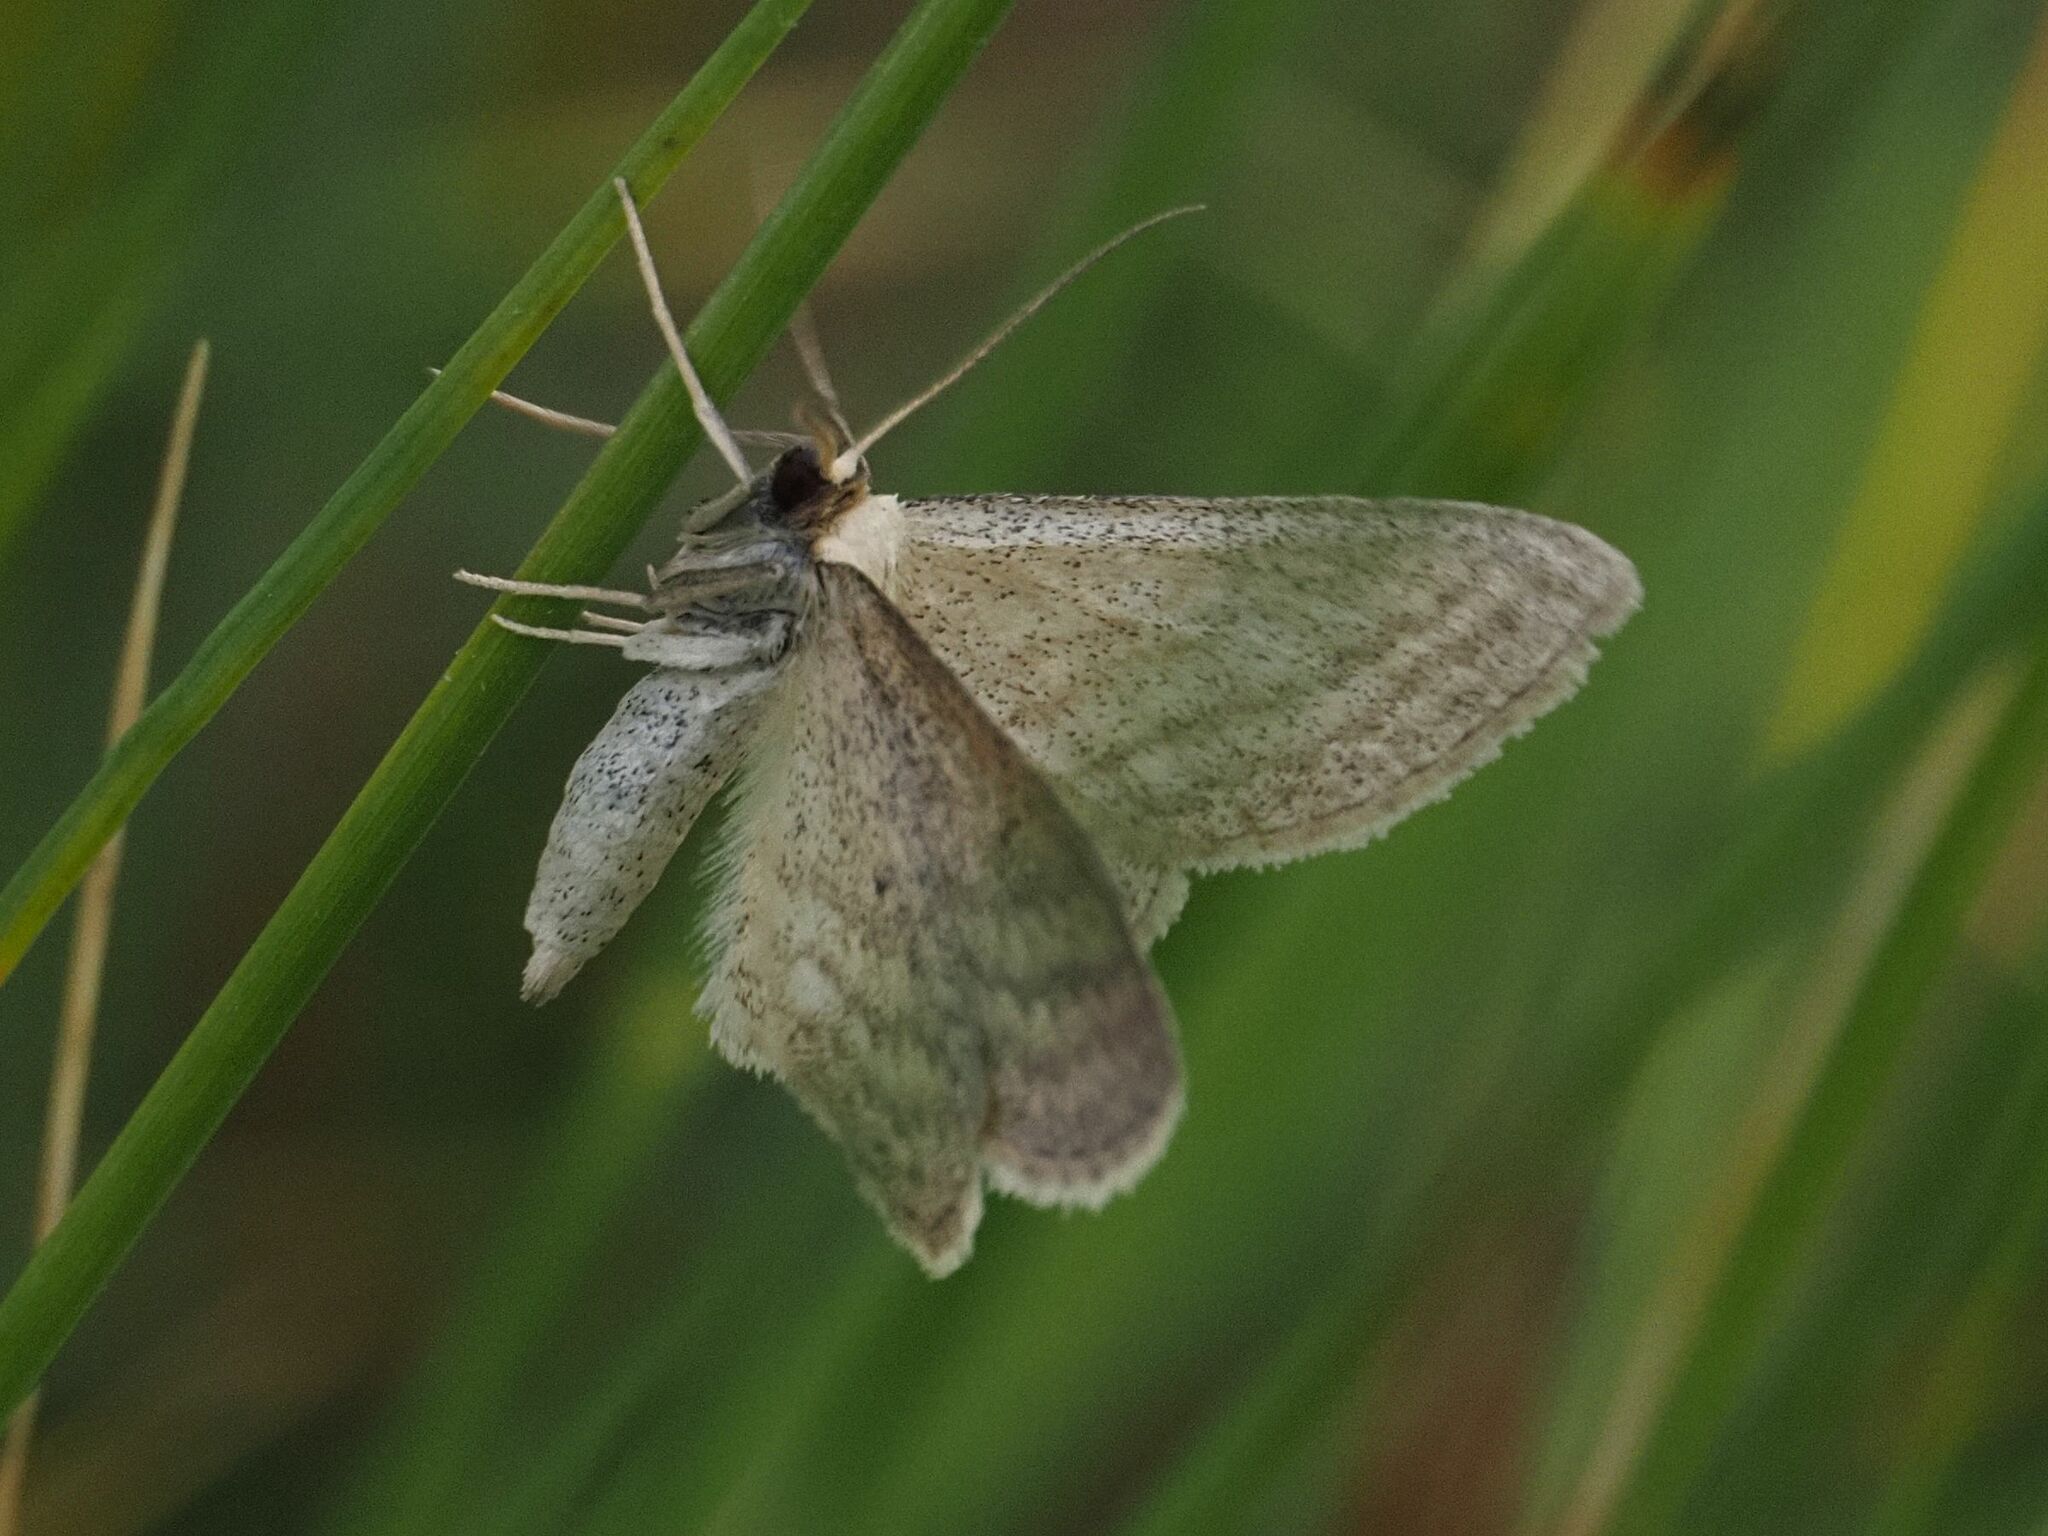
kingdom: Animalia
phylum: Arthropoda
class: Insecta
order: Lepidoptera
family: Geometridae
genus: Scopula
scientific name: Scopula virgulata
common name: Streaked wave
